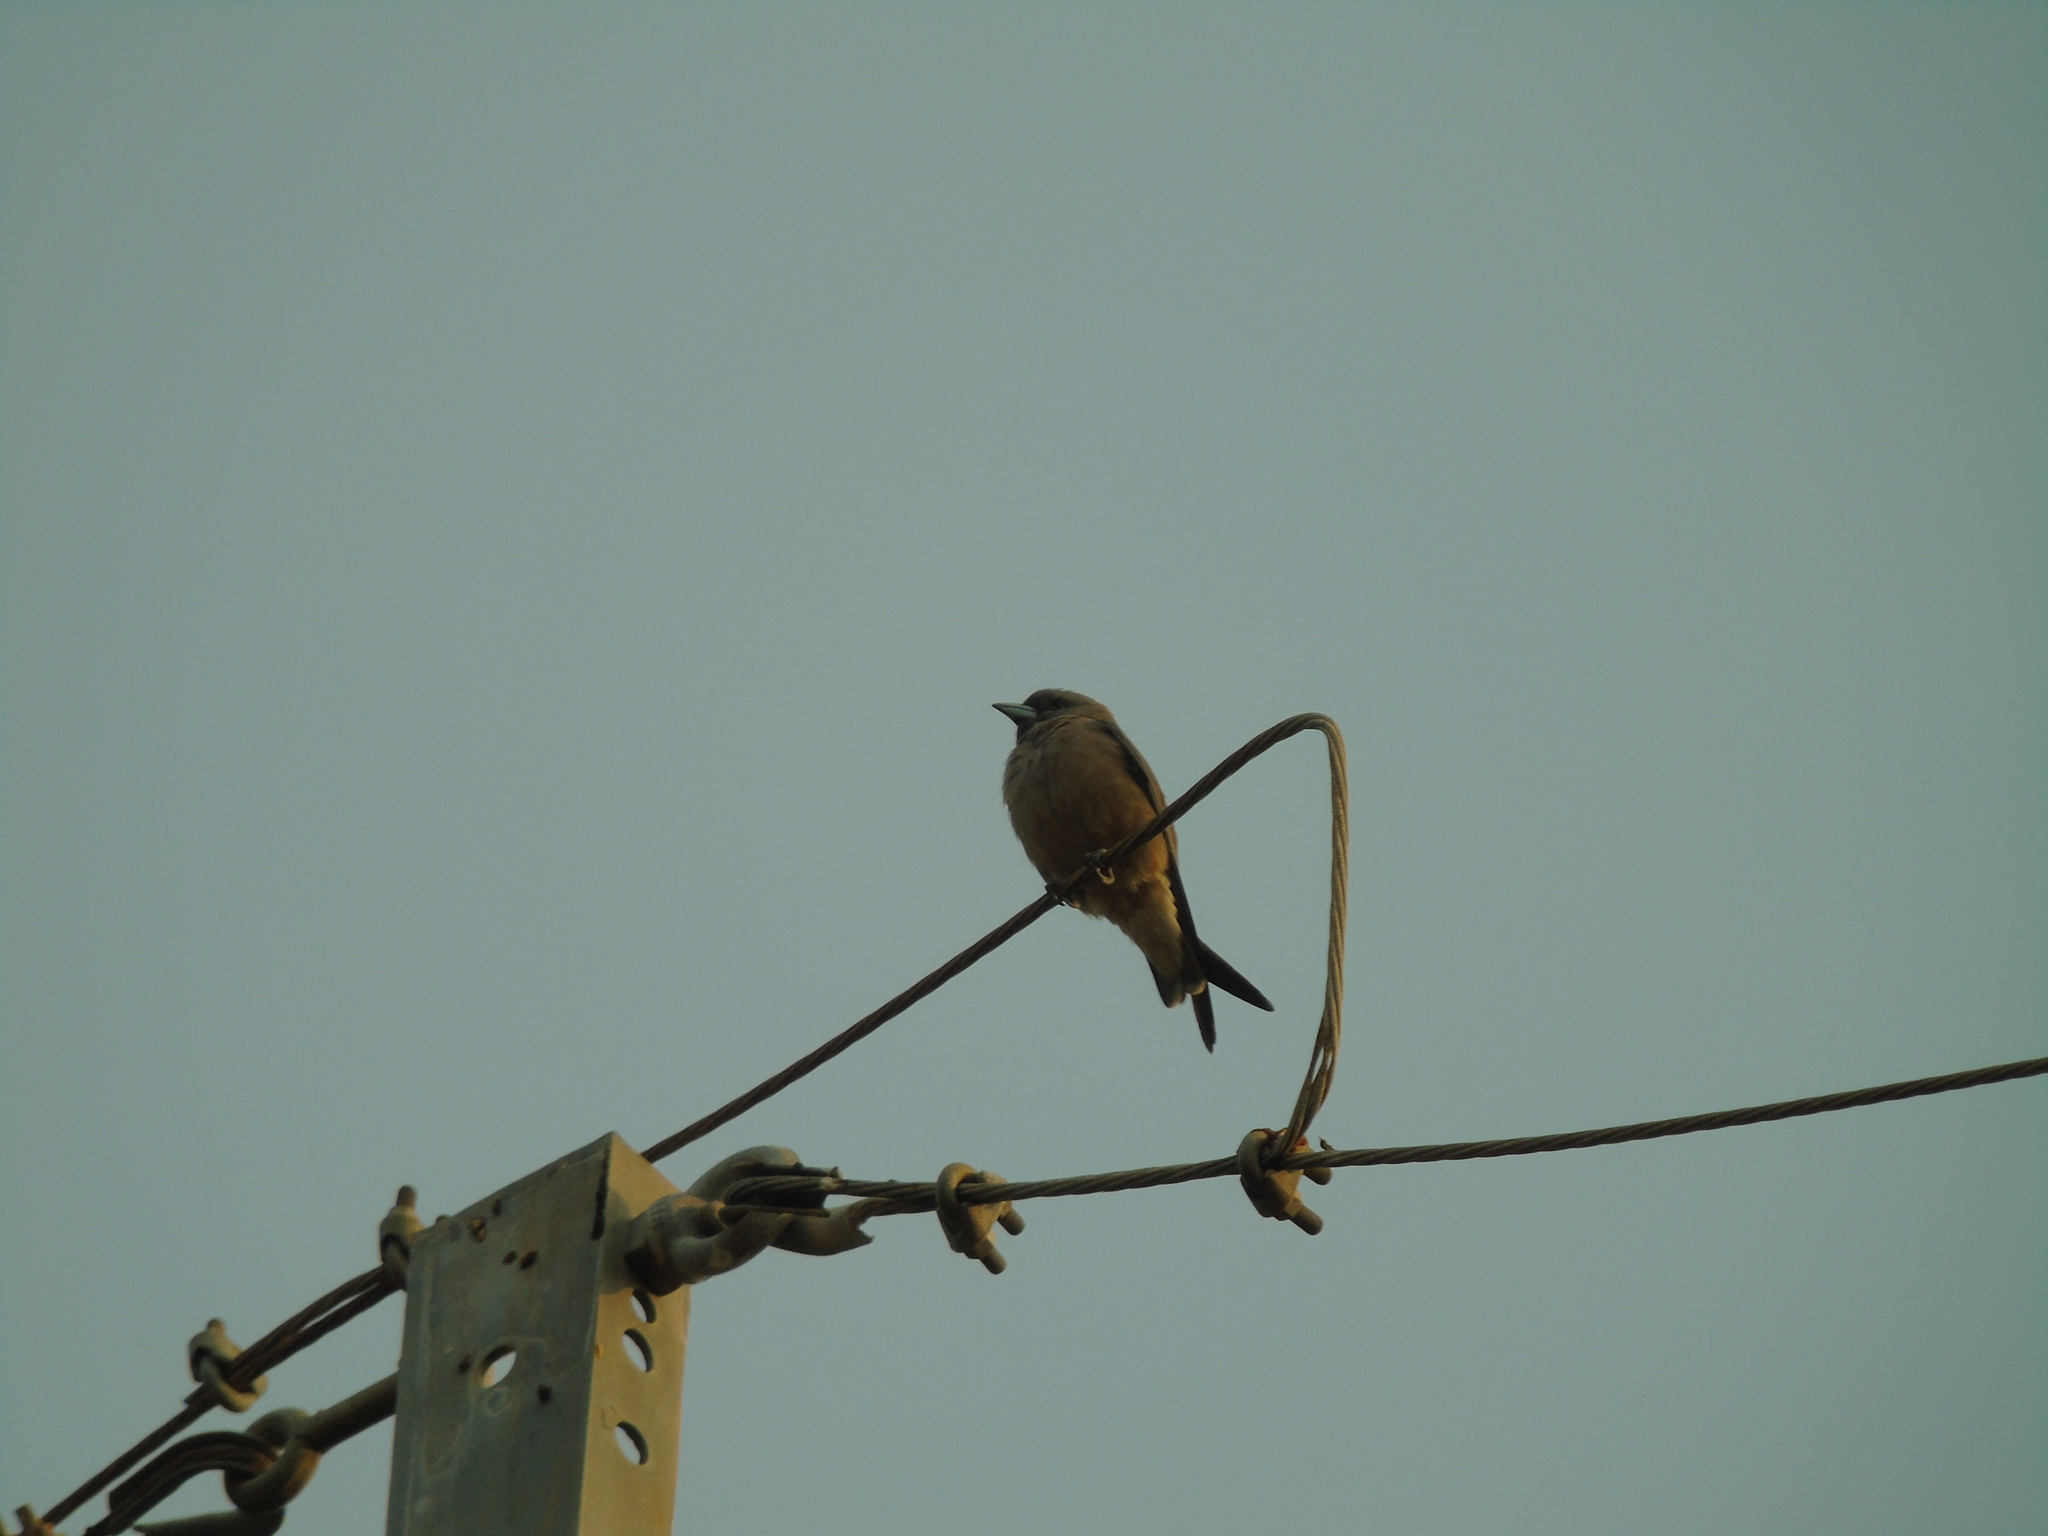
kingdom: Animalia
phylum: Chordata
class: Aves
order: Passeriformes
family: Artamidae
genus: Artamus
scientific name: Artamus fuscus
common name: Ashy woodswallow
